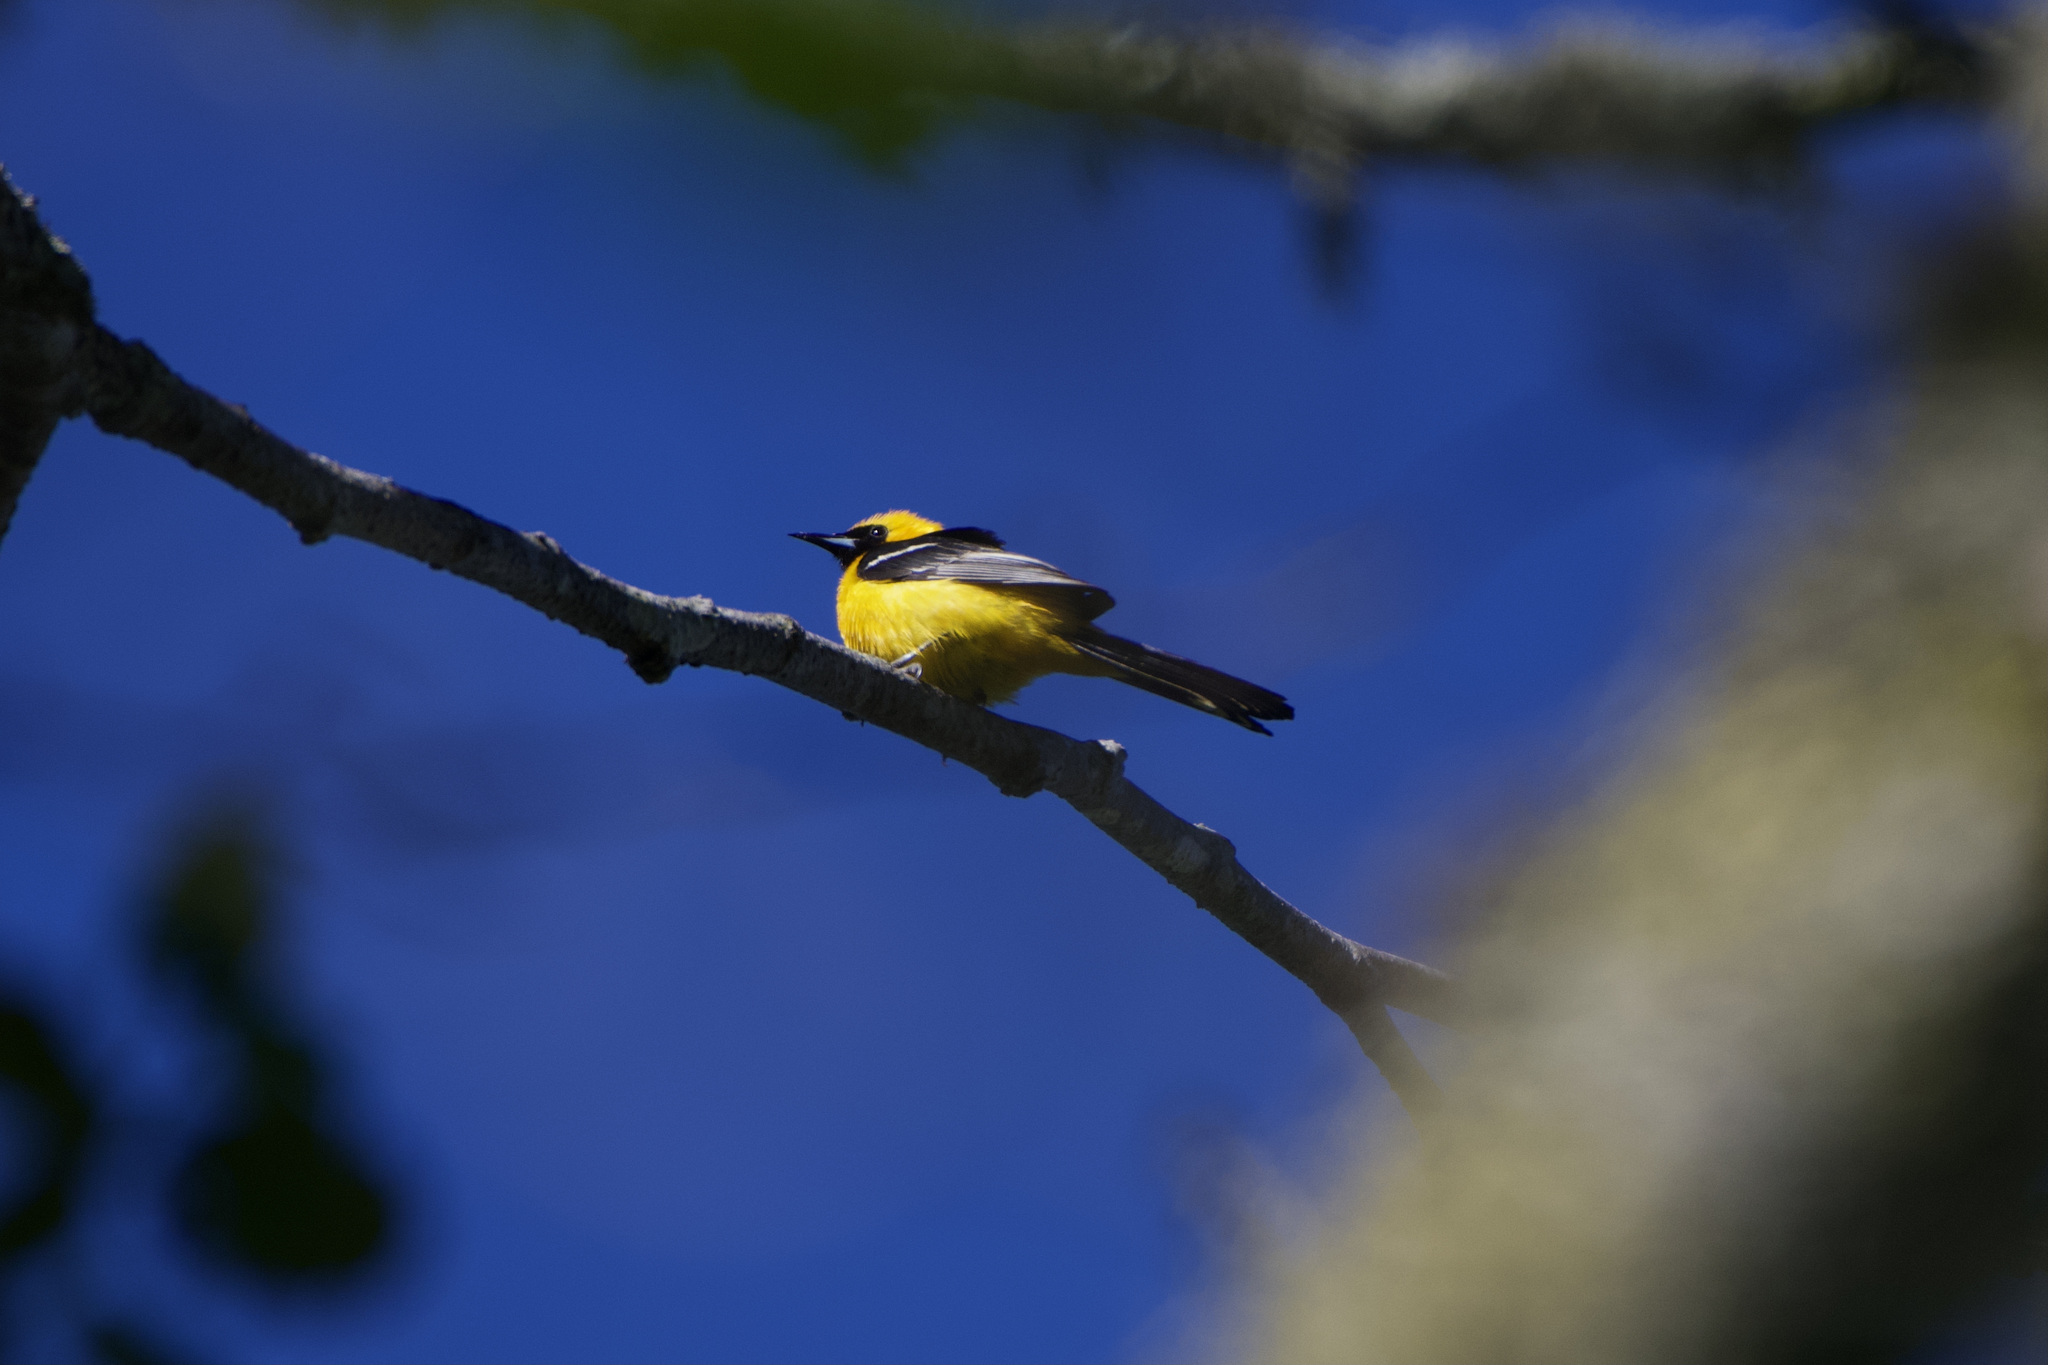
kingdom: Animalia
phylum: Chordata
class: Aves
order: Passeriformes
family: Icteridae
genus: Icterus
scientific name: Icterus cucullatus
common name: Hooded oriole
